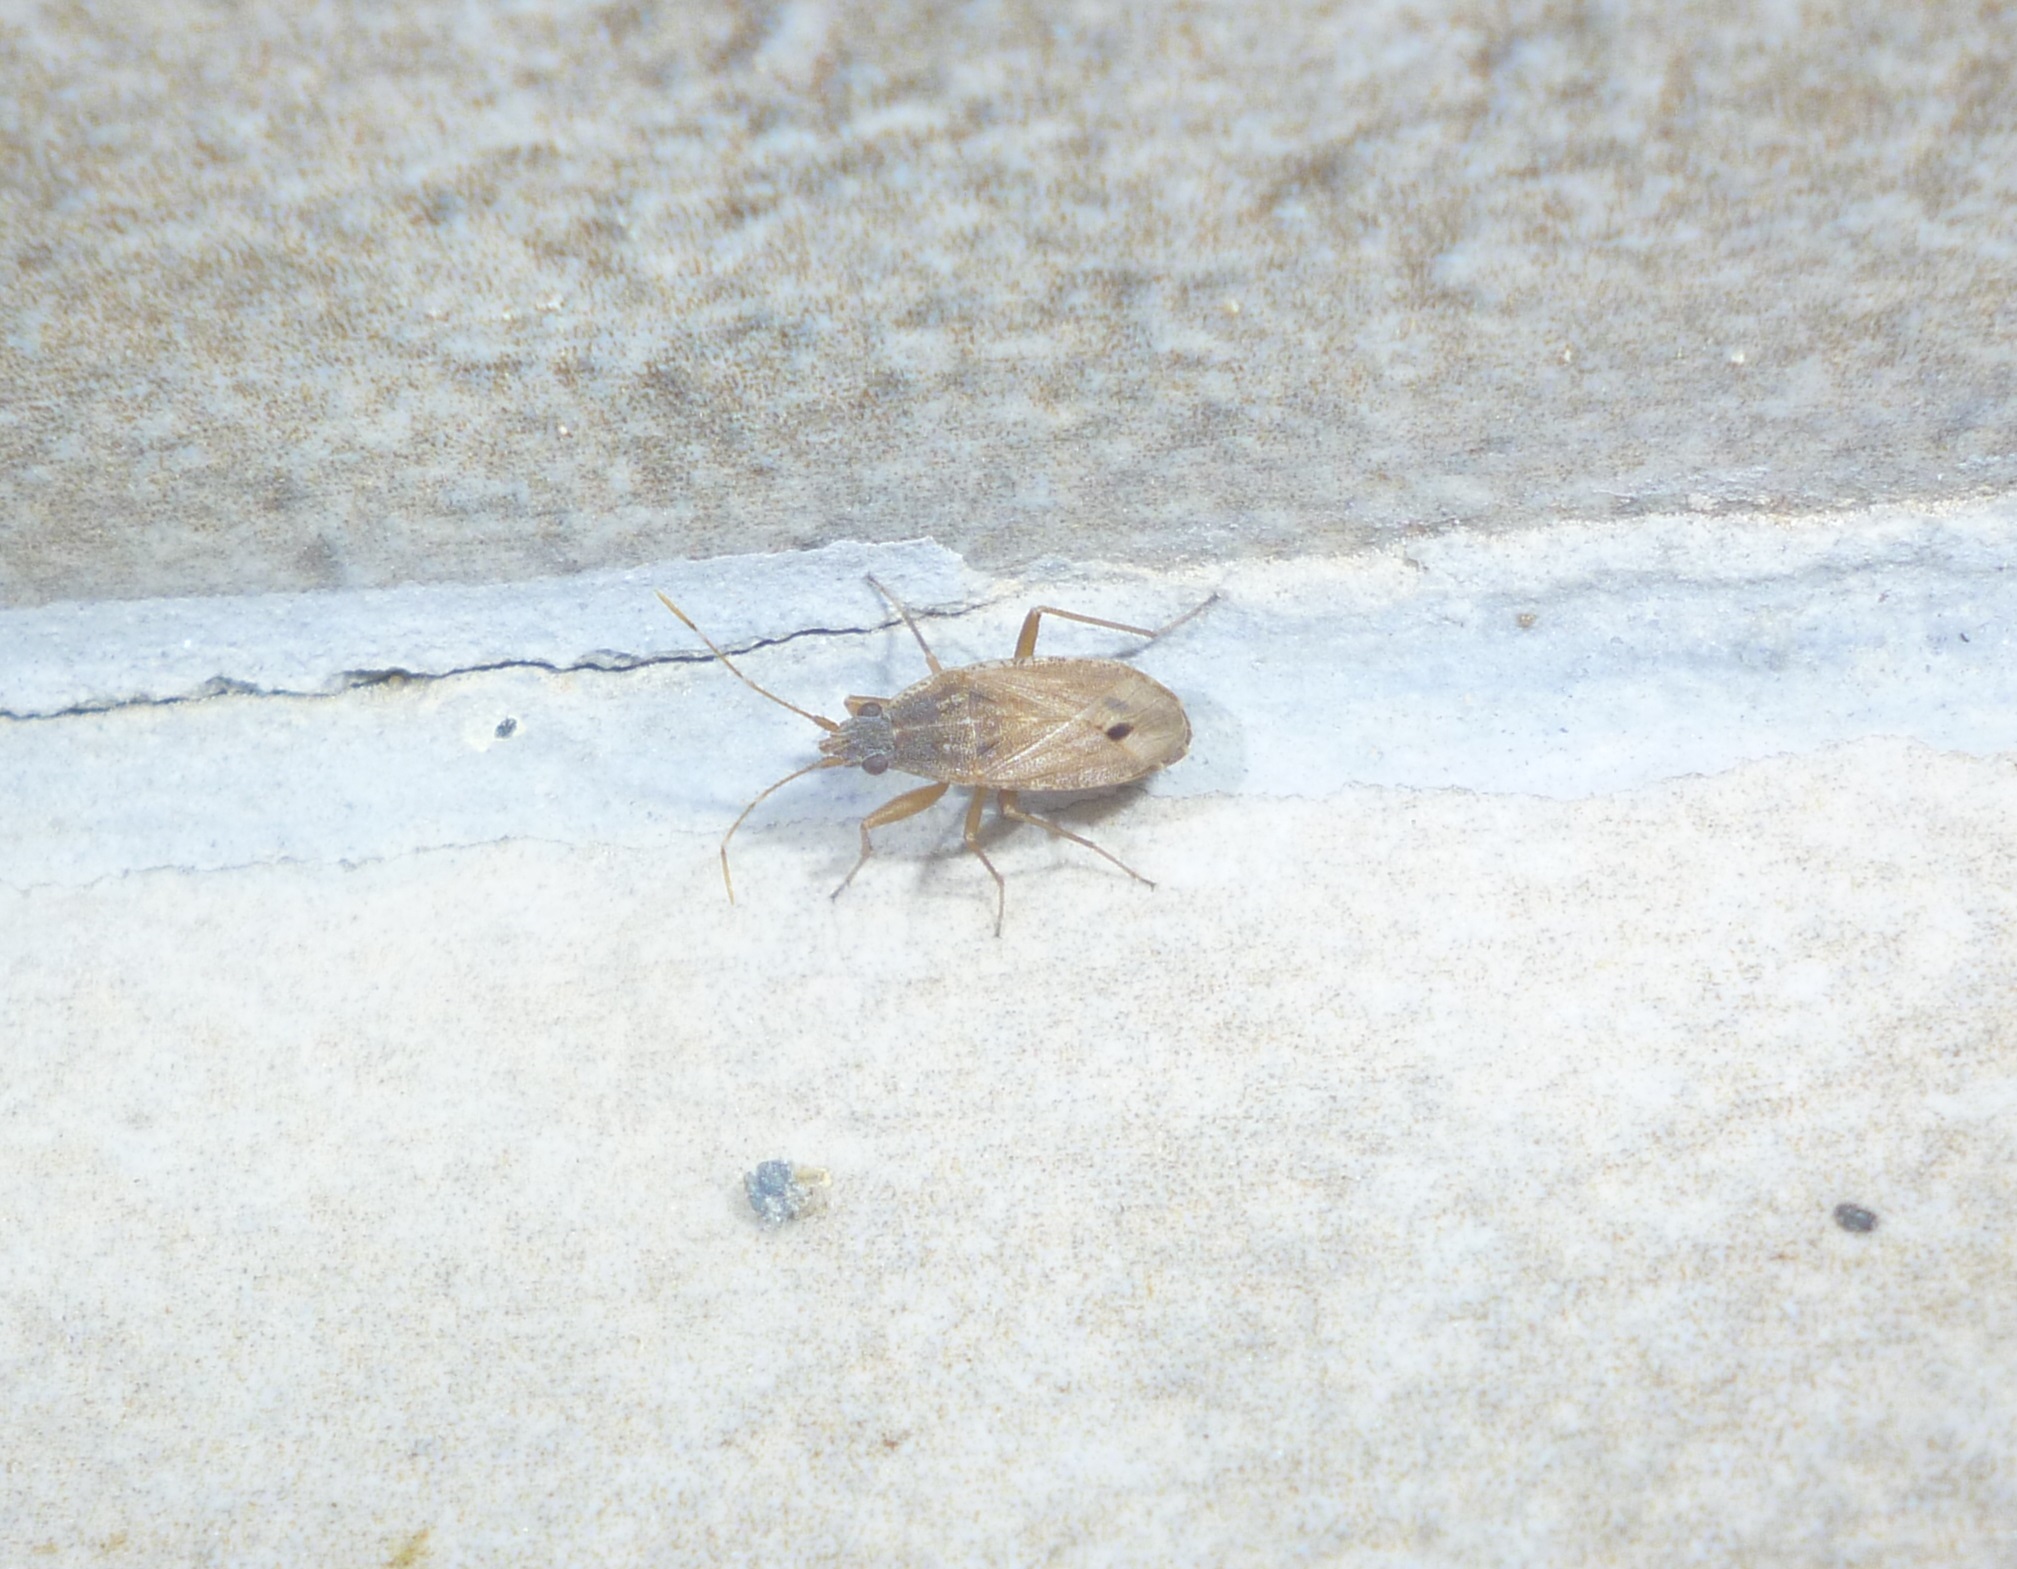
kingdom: Animalia
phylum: Arthropoda
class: Insecta
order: Hemiptera
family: Rhyparochromidae
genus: Ischnopeza
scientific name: Ischnopeza pallipes
